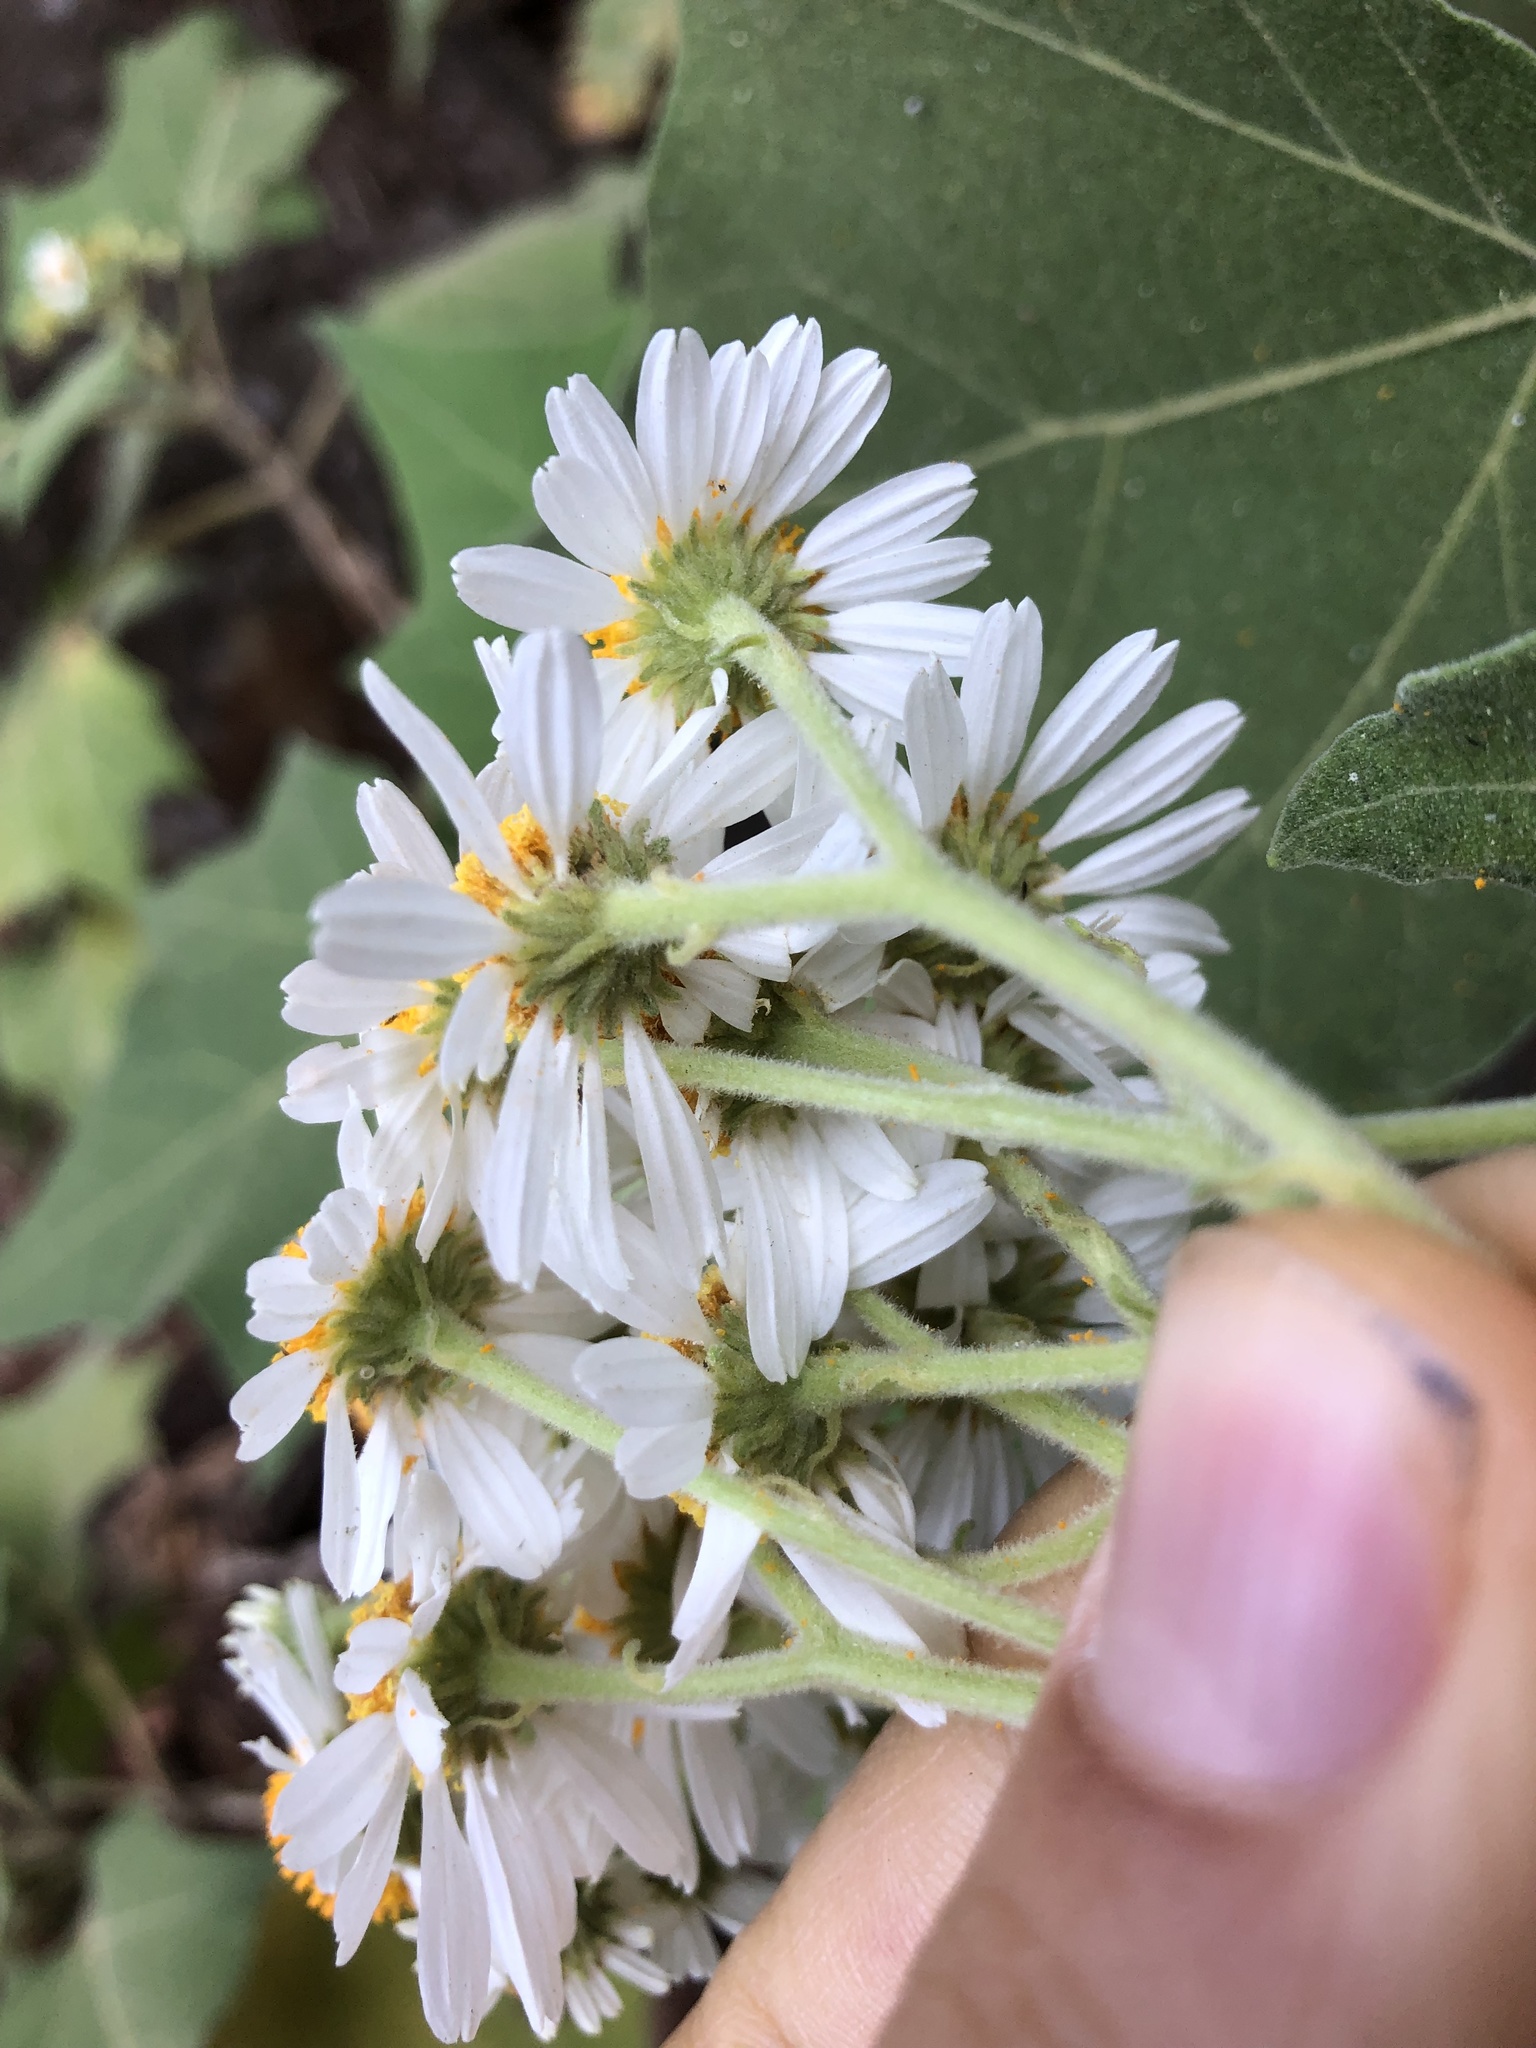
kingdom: Plantae
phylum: Tracheophyta
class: Magnoliopsida
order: Asterales
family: Asteraceae
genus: Podachaenium
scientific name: Podachaenium eminens
